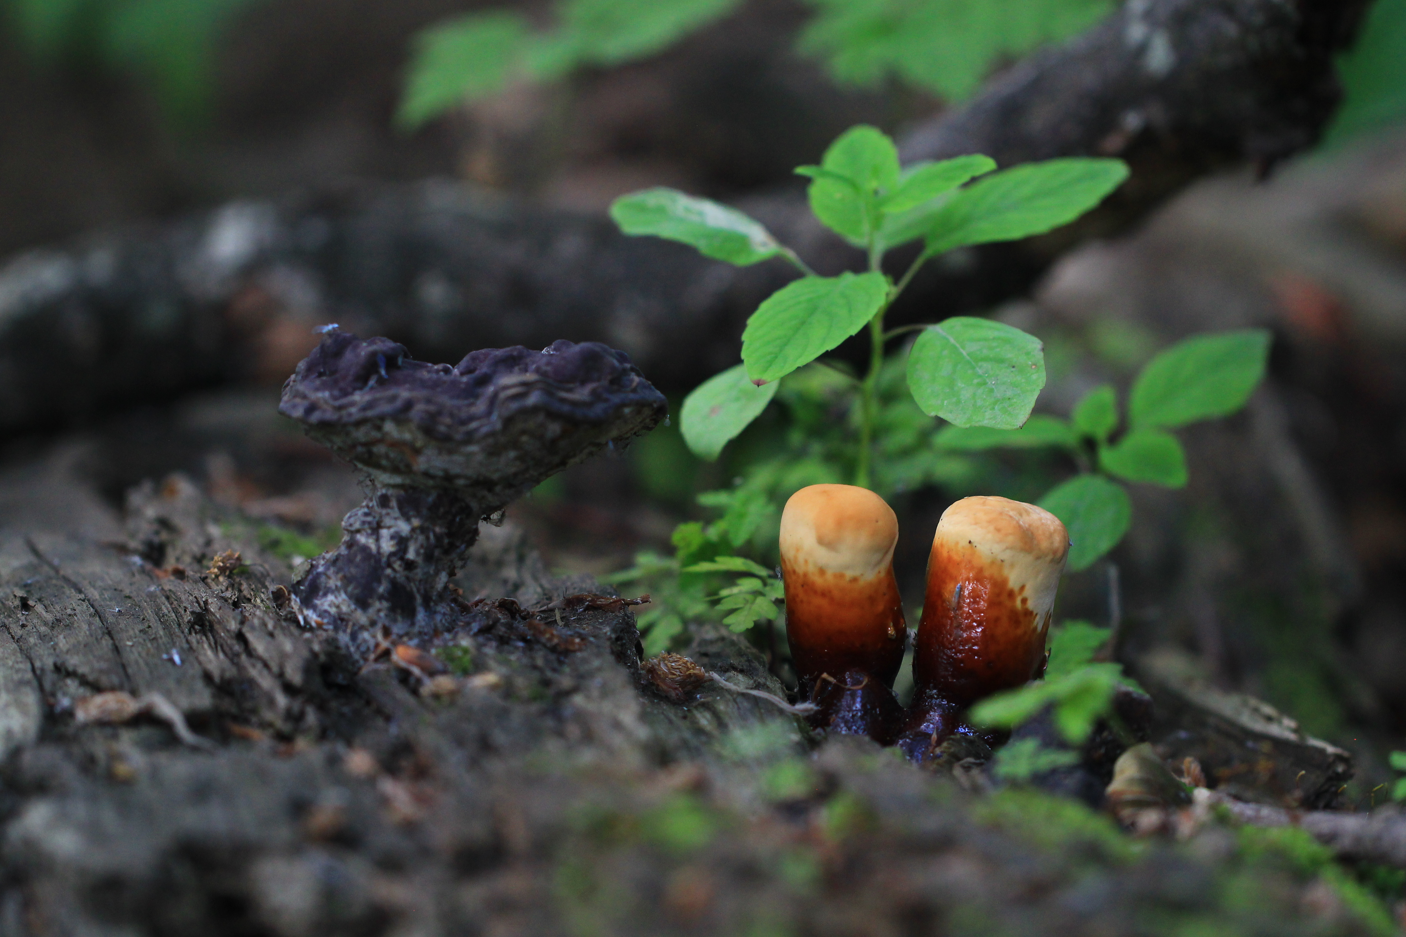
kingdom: Fungi
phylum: Basidiomycota
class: Agaricomycetes
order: Polyporales
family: Polyporaceae
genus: Ganoderma
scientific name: Ganoderma lucidum
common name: Lacquered bracket
